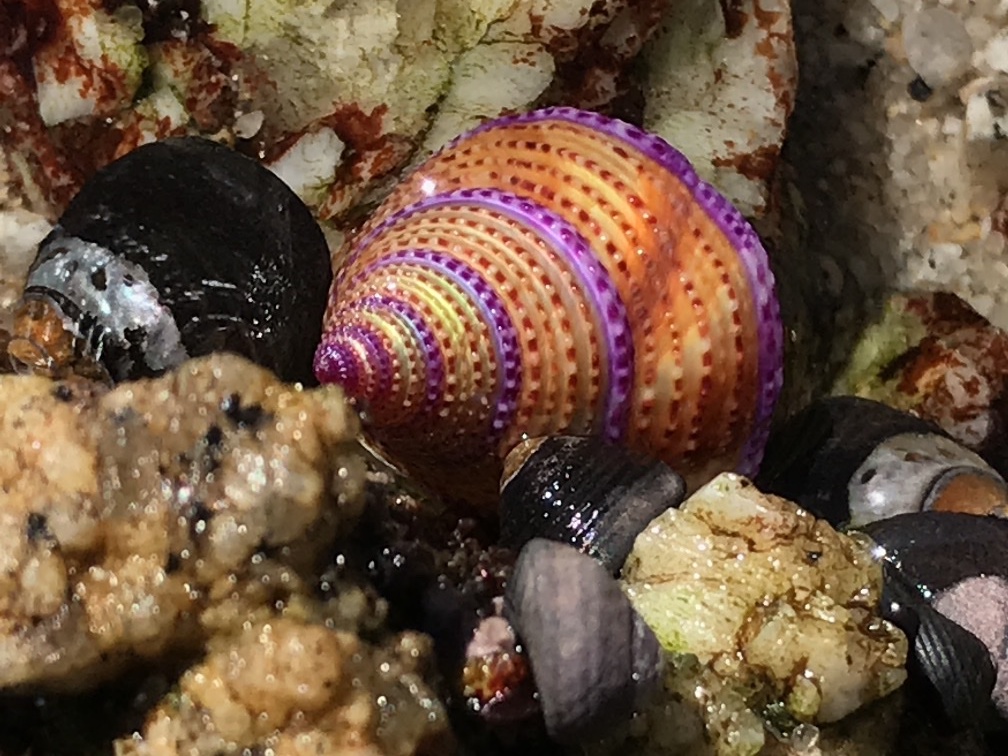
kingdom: Animalia
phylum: Mollusca
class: Gastropoda
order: Trochida
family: Calliostomatidae
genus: Calliostoma
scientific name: Calliostoma annulatum
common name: Blue-ring topsnail
